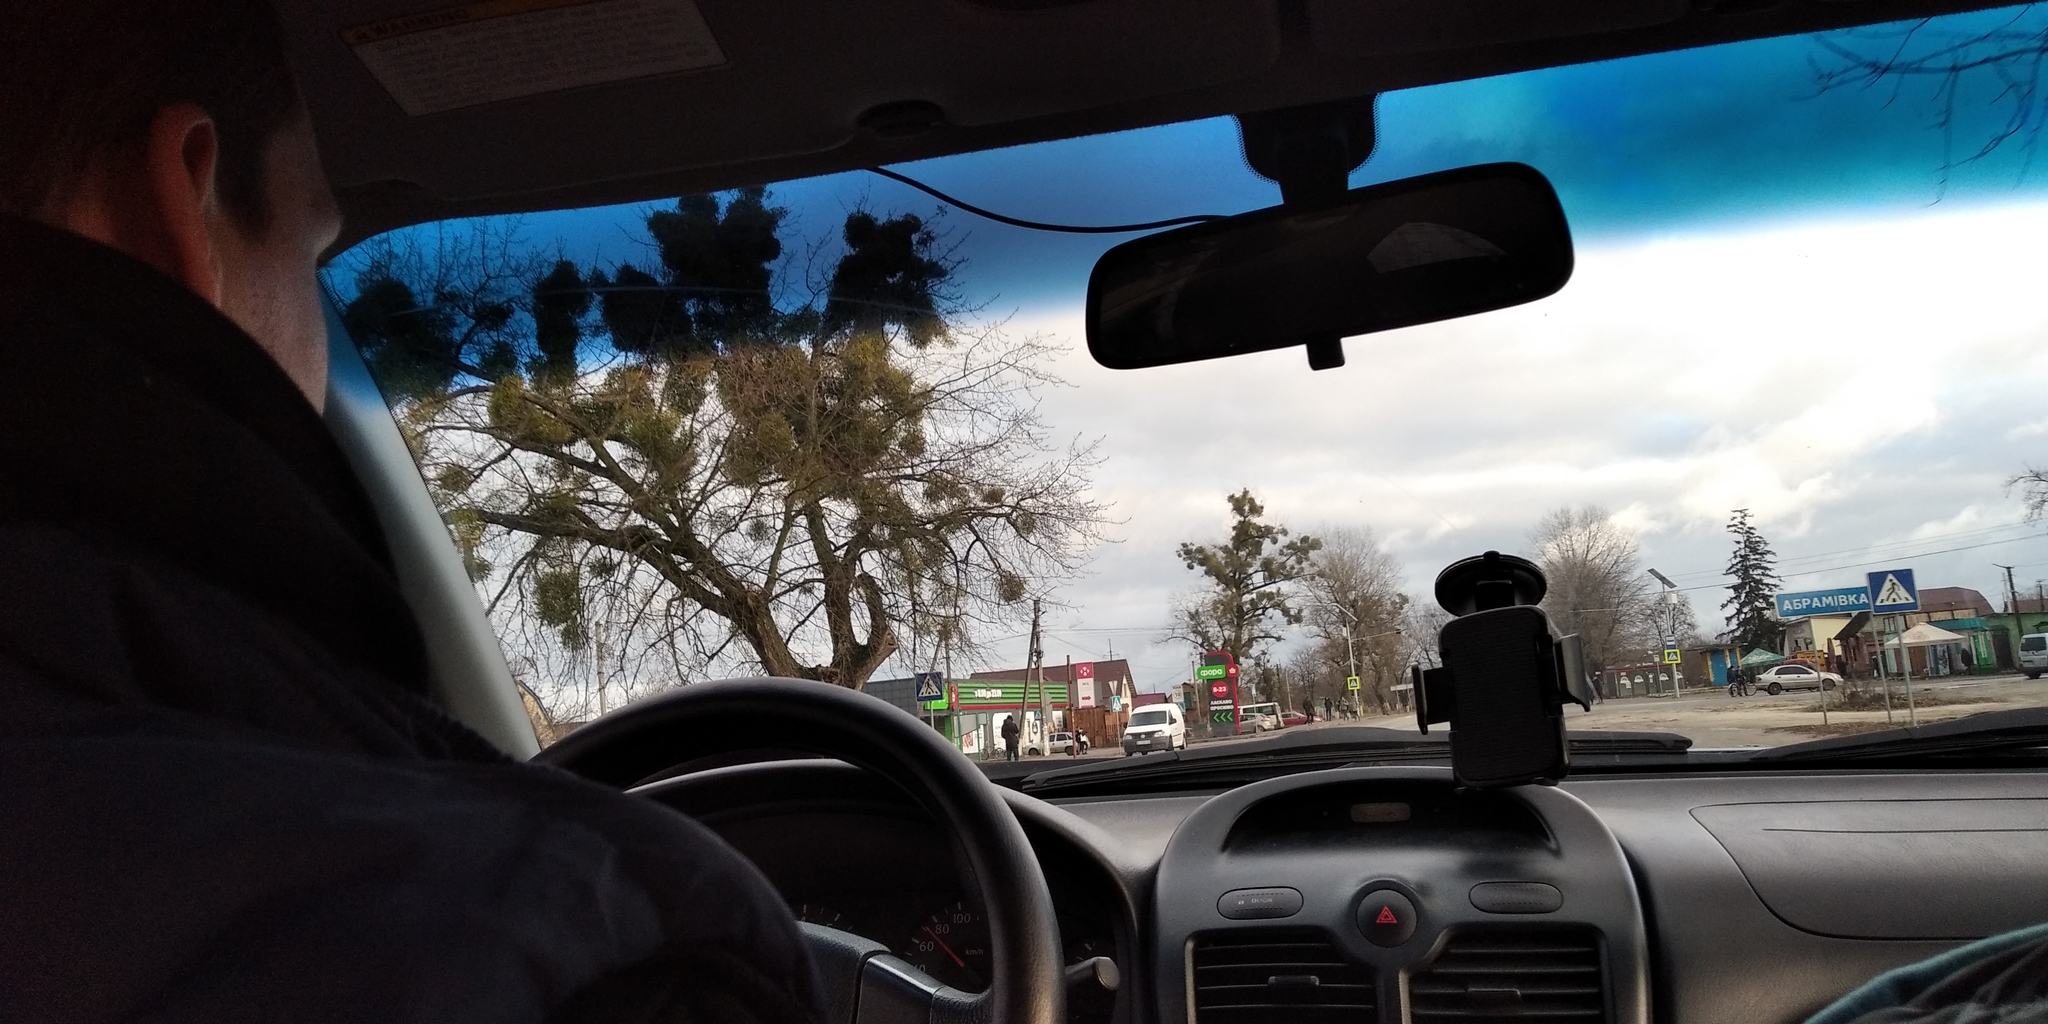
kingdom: Plantae
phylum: Tracheophyta
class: Magnoliopsida
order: Santalales
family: Viscaceae
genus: Viscum
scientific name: Viscum album
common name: Mistletoe
